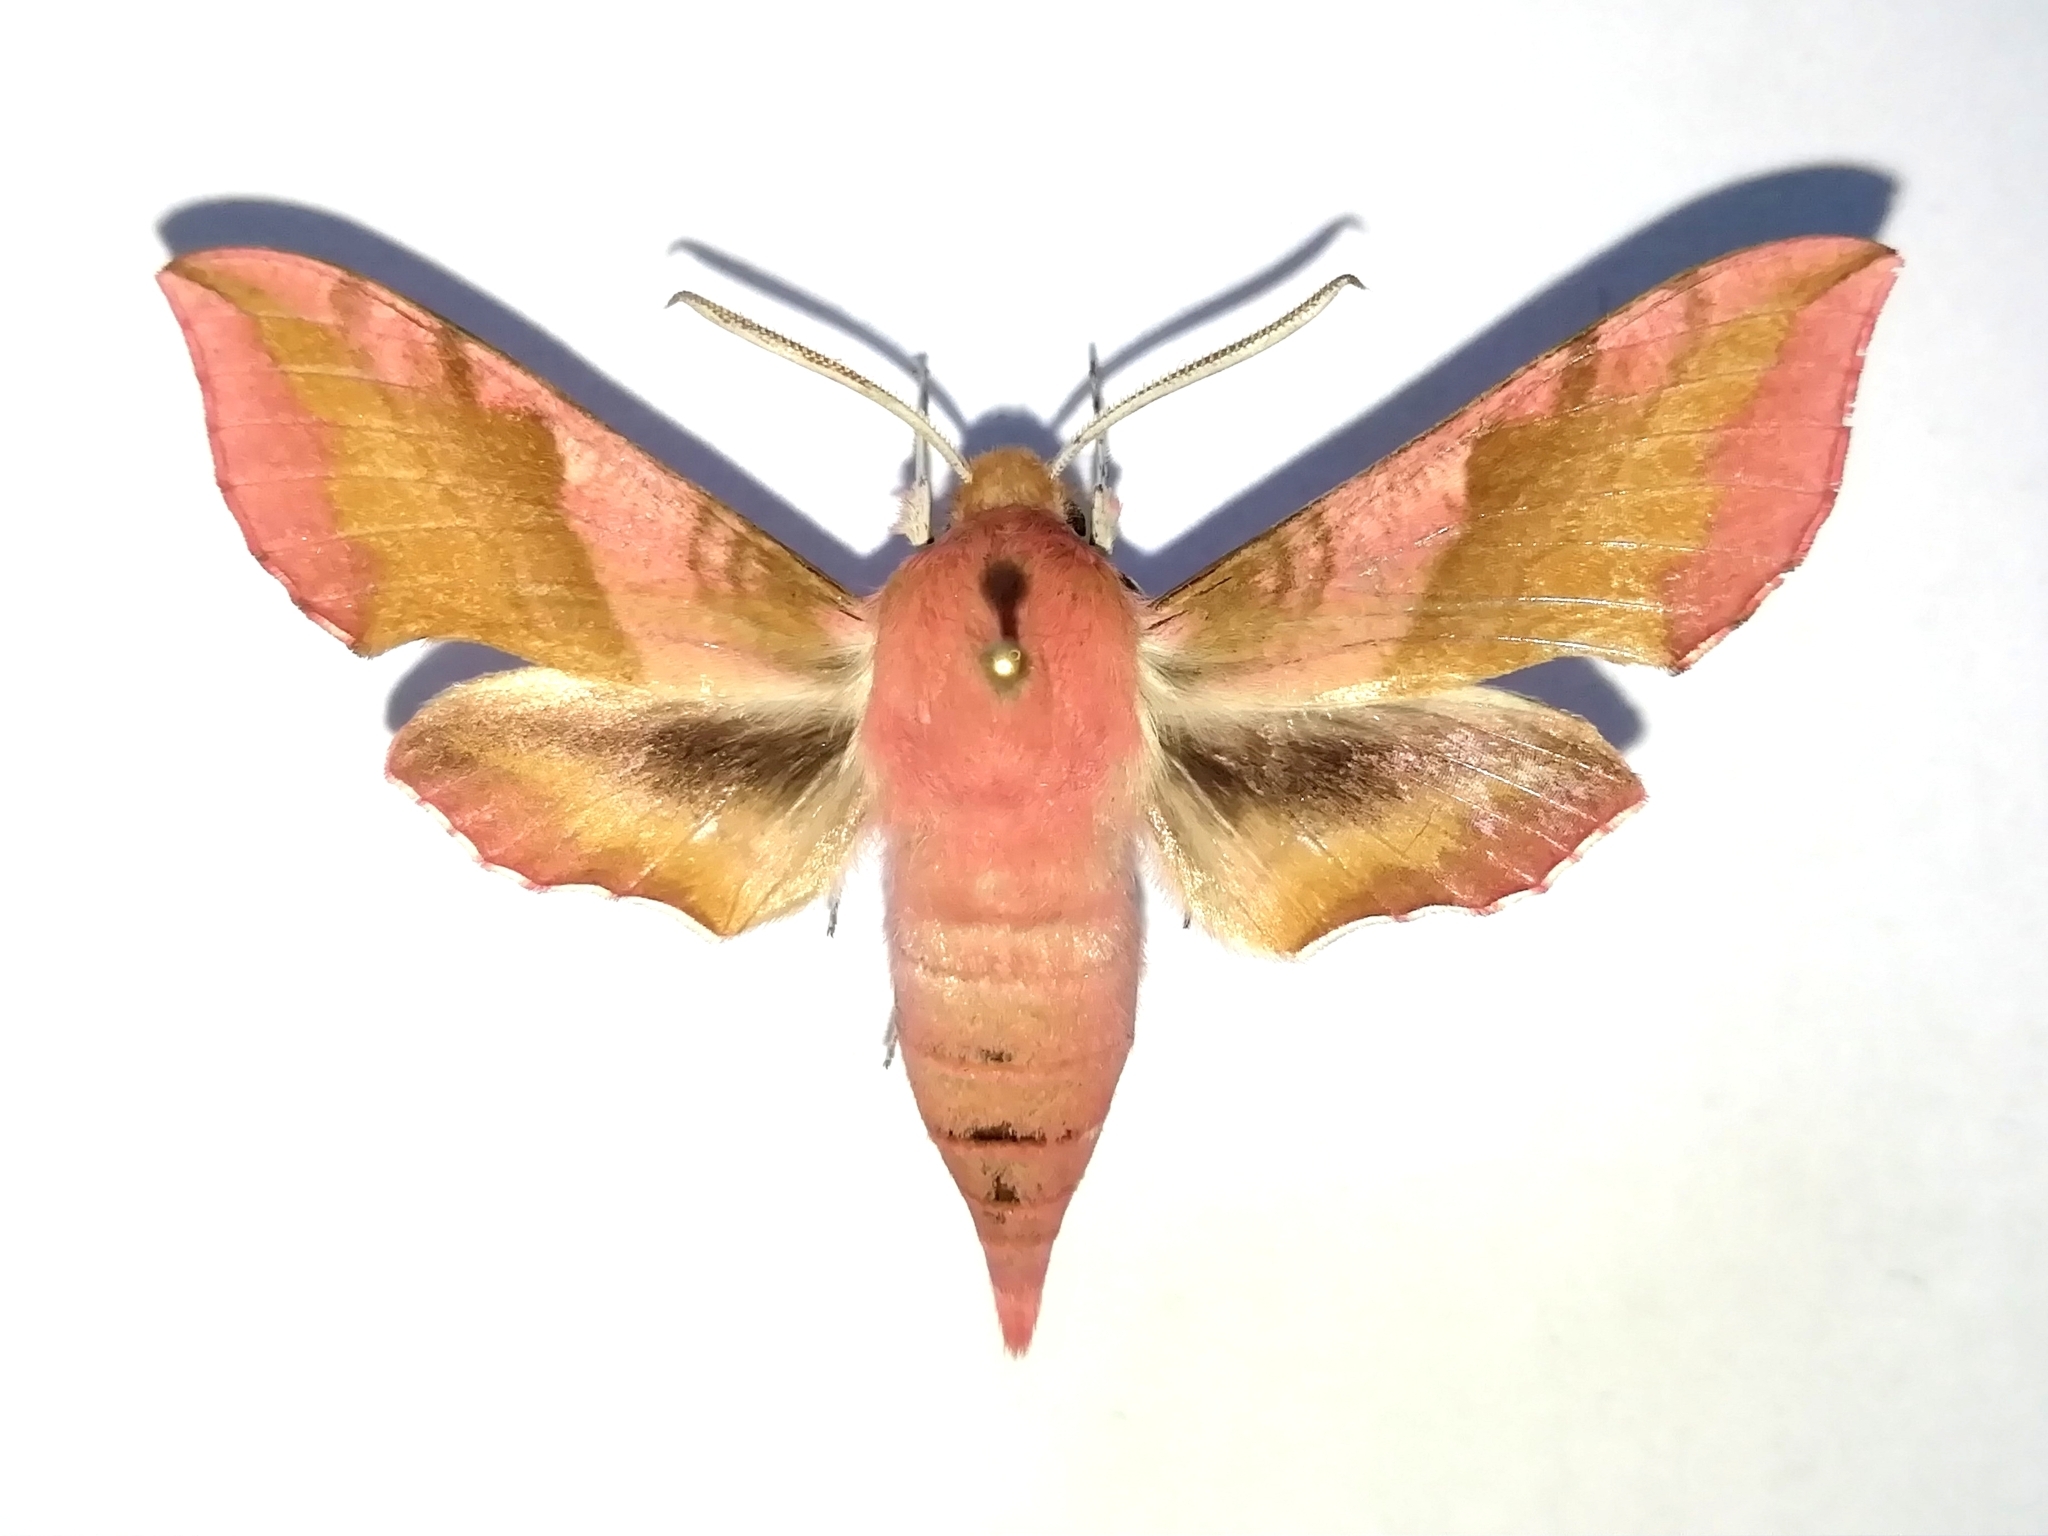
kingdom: Animalia
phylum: Arthropoda
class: Insecta
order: Lepidoptera
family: Sphingidae
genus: Deilephila
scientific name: Deilephila porcellus
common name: Small elephant hawk-moth
